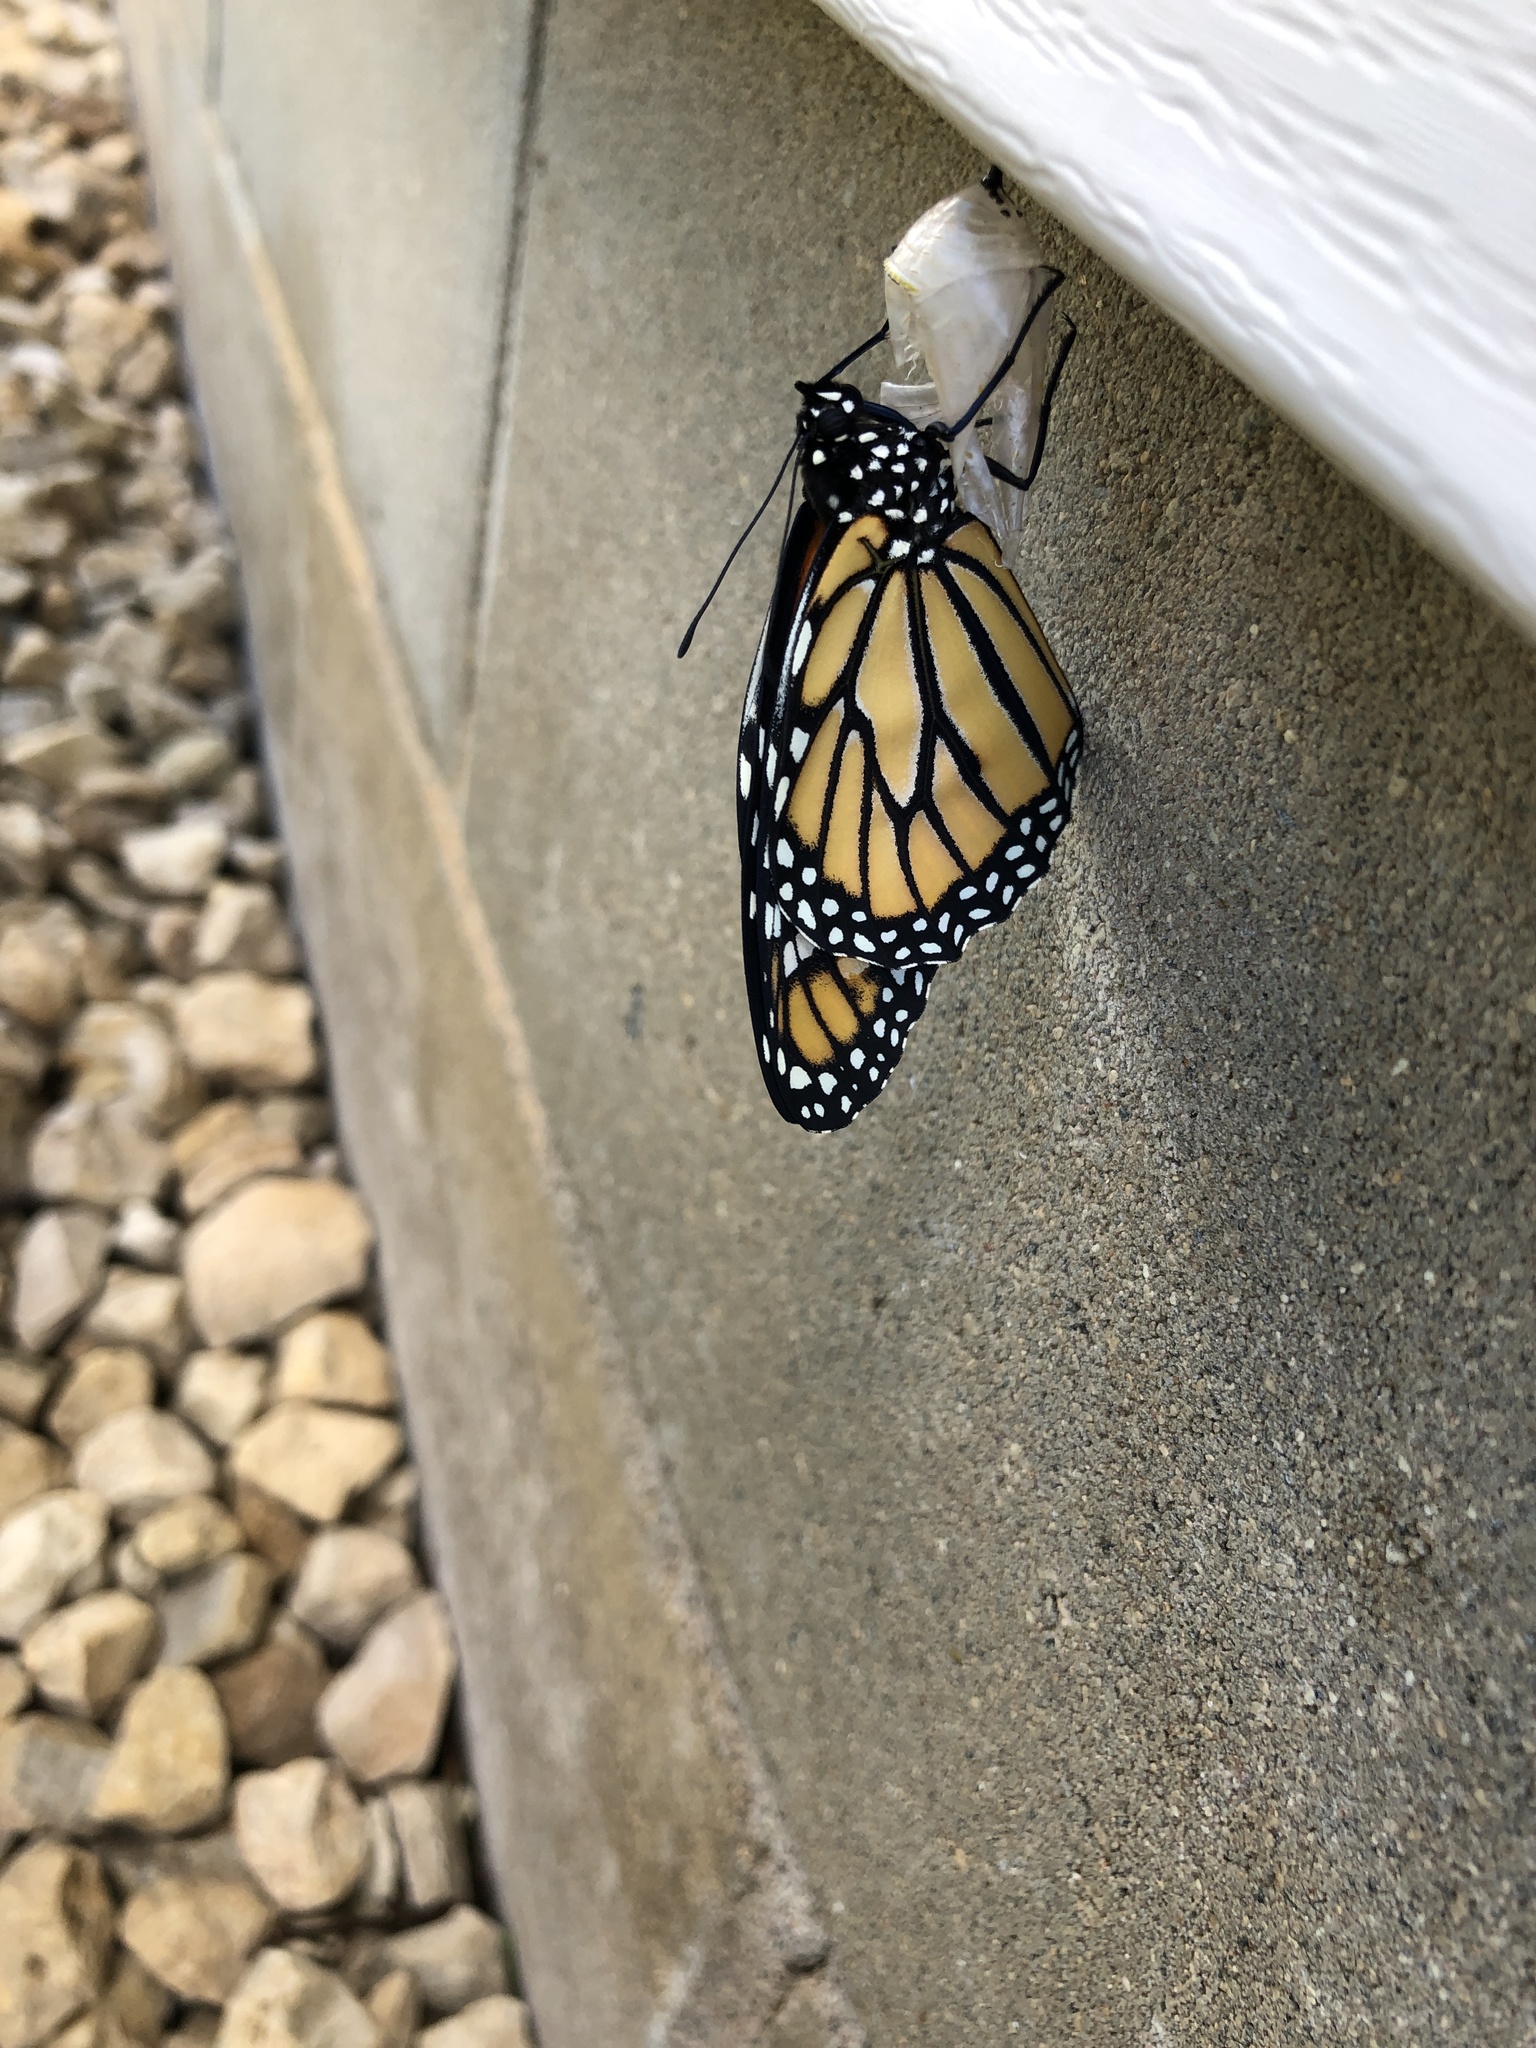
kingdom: Animalia
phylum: Arthropoda
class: Insecta
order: Lepidoptera
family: Nymphalidae
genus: Danaus
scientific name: Danaus plexippus
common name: Monarch
